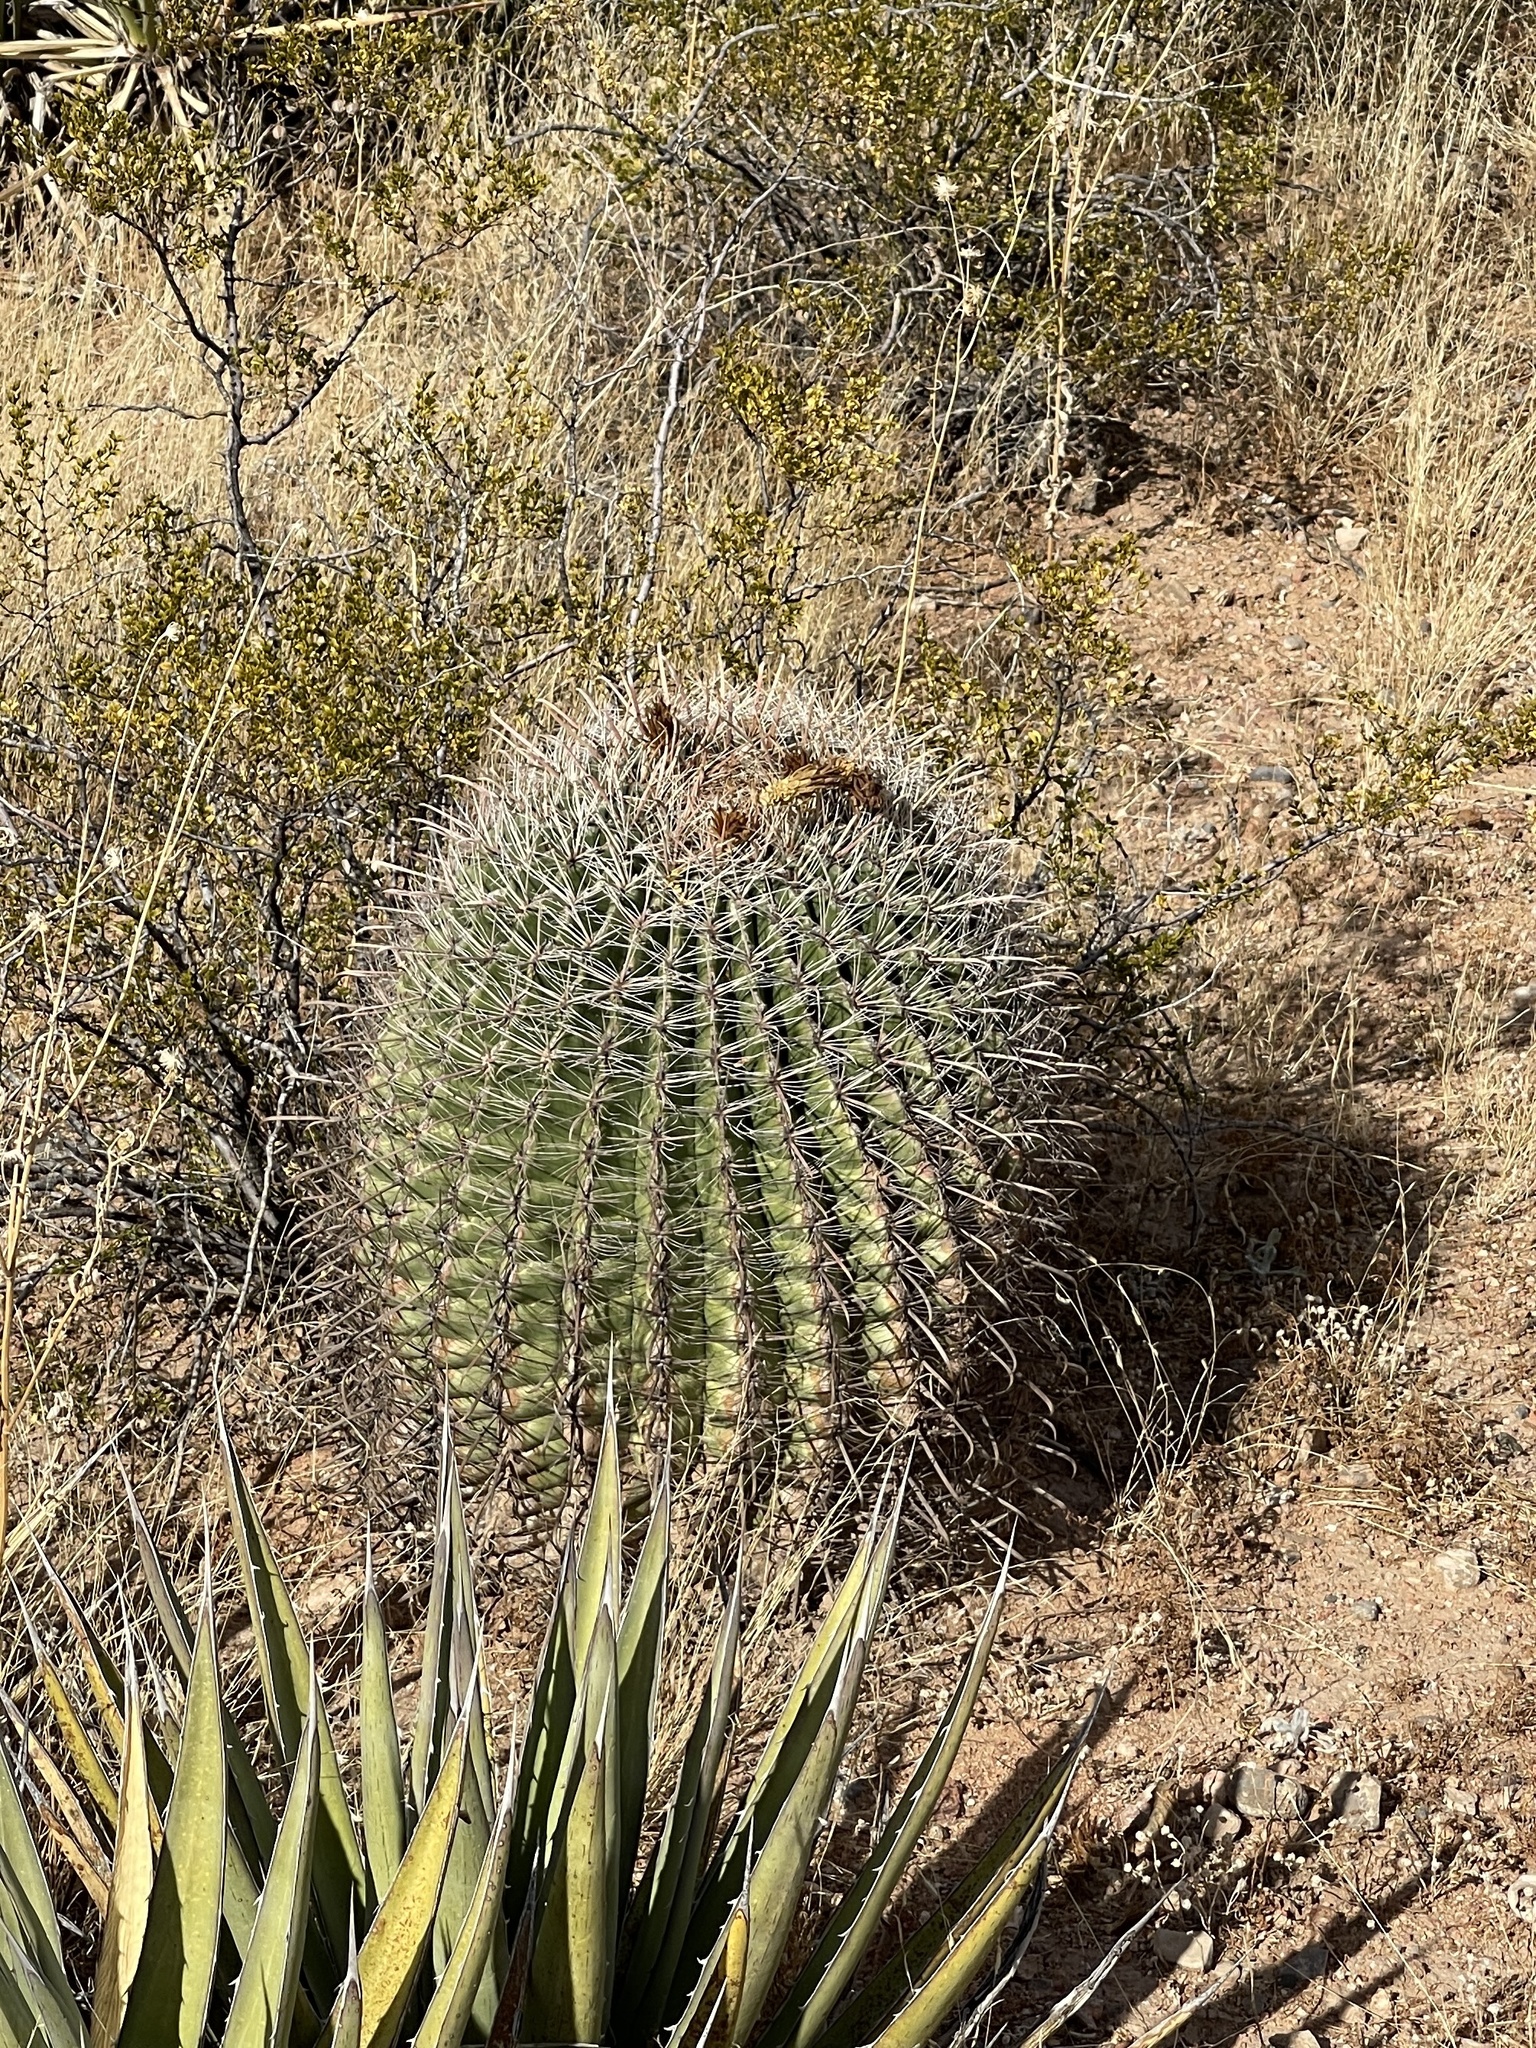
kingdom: Plantae
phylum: Tracheophyta
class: Magnoliopsida
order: Caryophyllales
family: Cactaceae
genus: Ferocactus
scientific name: Ferocactus wislizeni
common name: Candy barrel cactus
